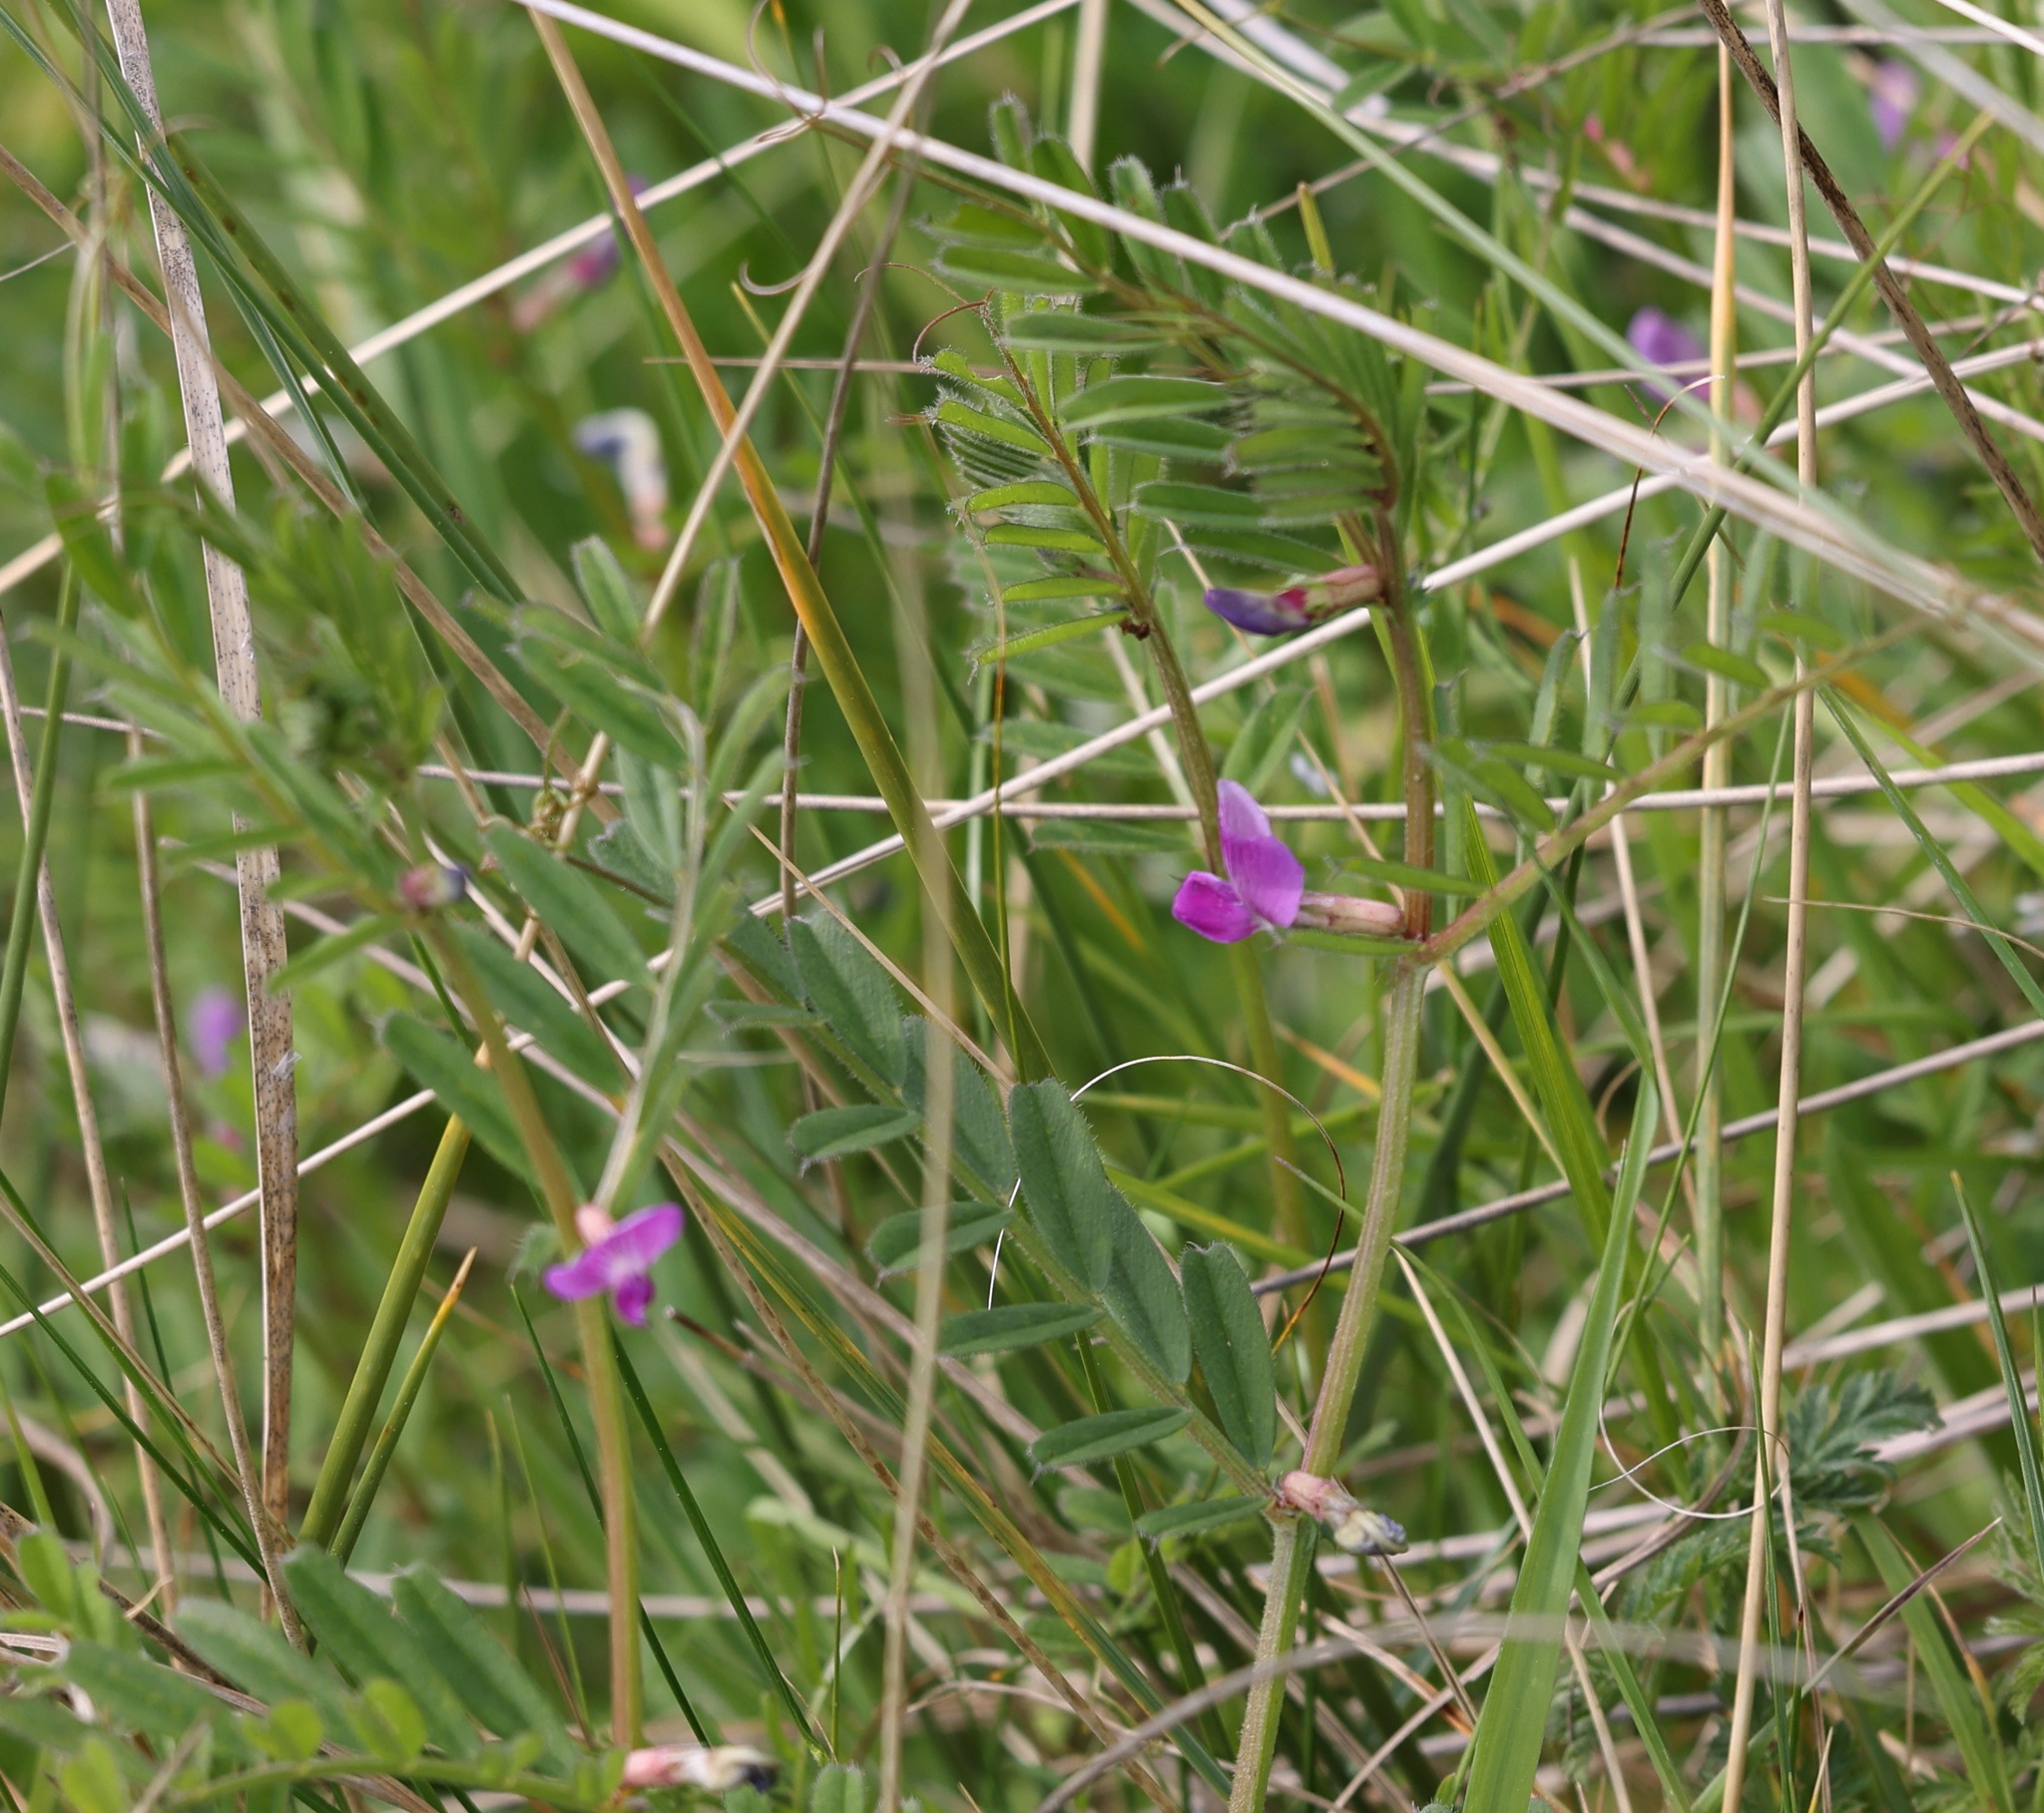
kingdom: Plantae
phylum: Tracheophyta
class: Magnoliopsida
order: Fabales
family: Fabaceae
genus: Vicia
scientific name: Vicia sativa
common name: Garden vetch
